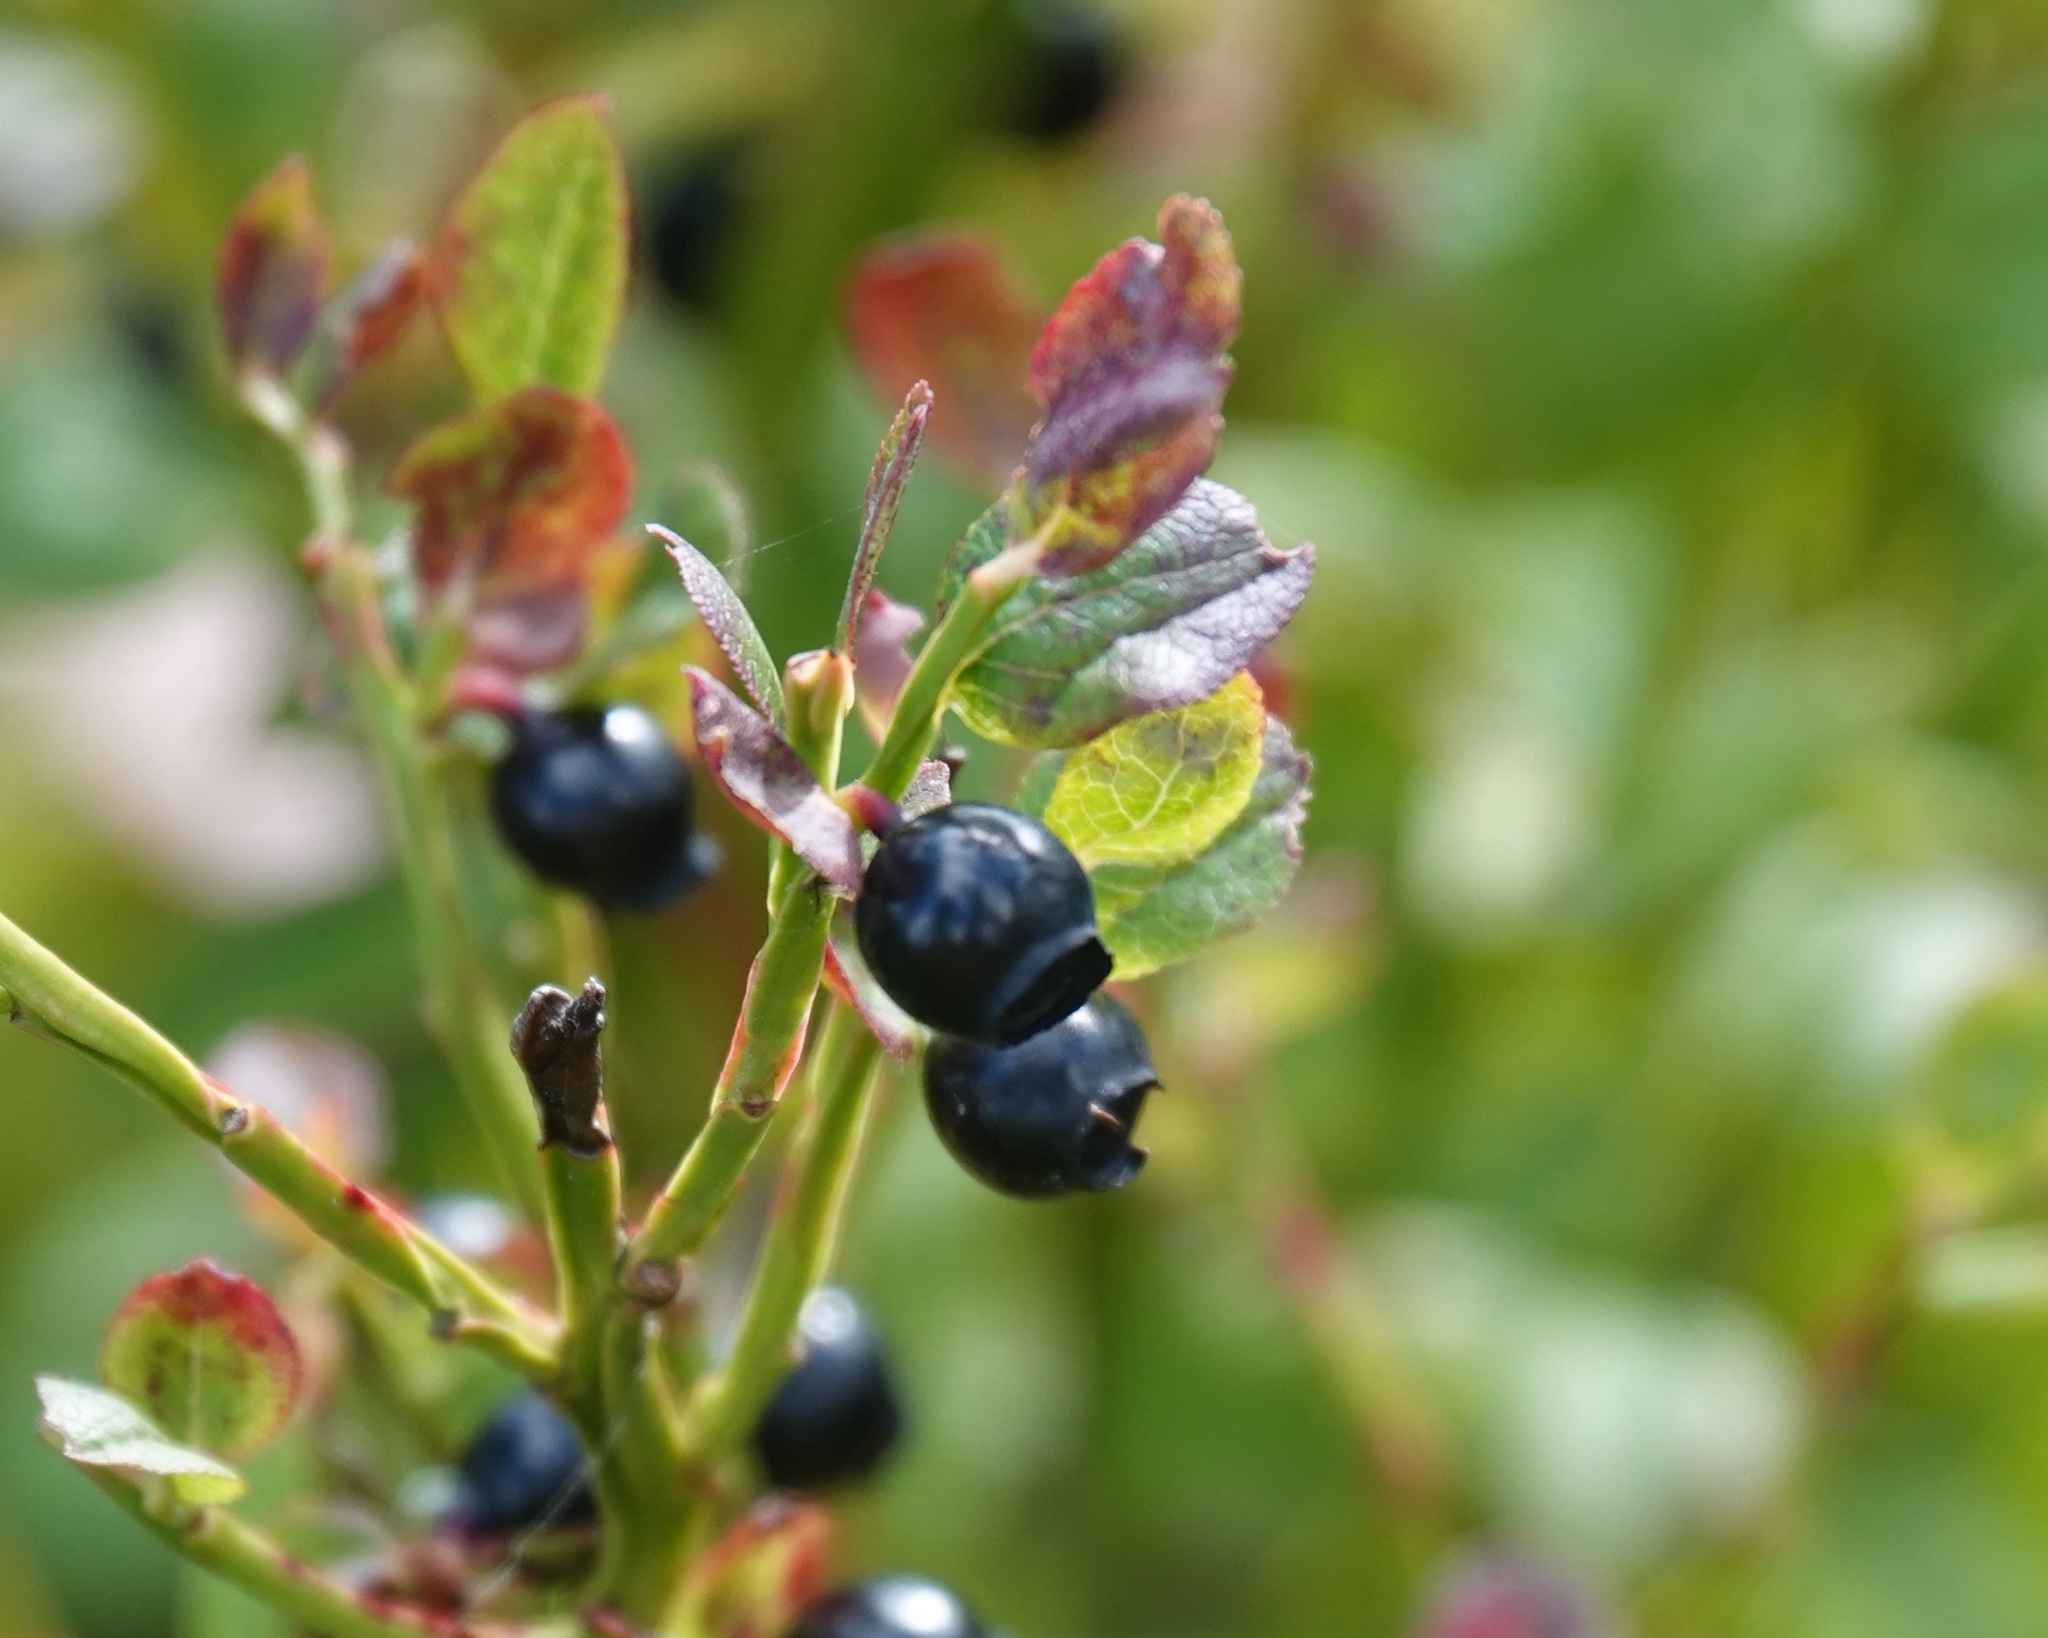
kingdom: Plantae
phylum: Tracheophyta
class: Magnoliopsida
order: Ericales
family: Ericaceae
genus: Vaccinium
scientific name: Vaccinium myrtillus
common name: Bilberry
